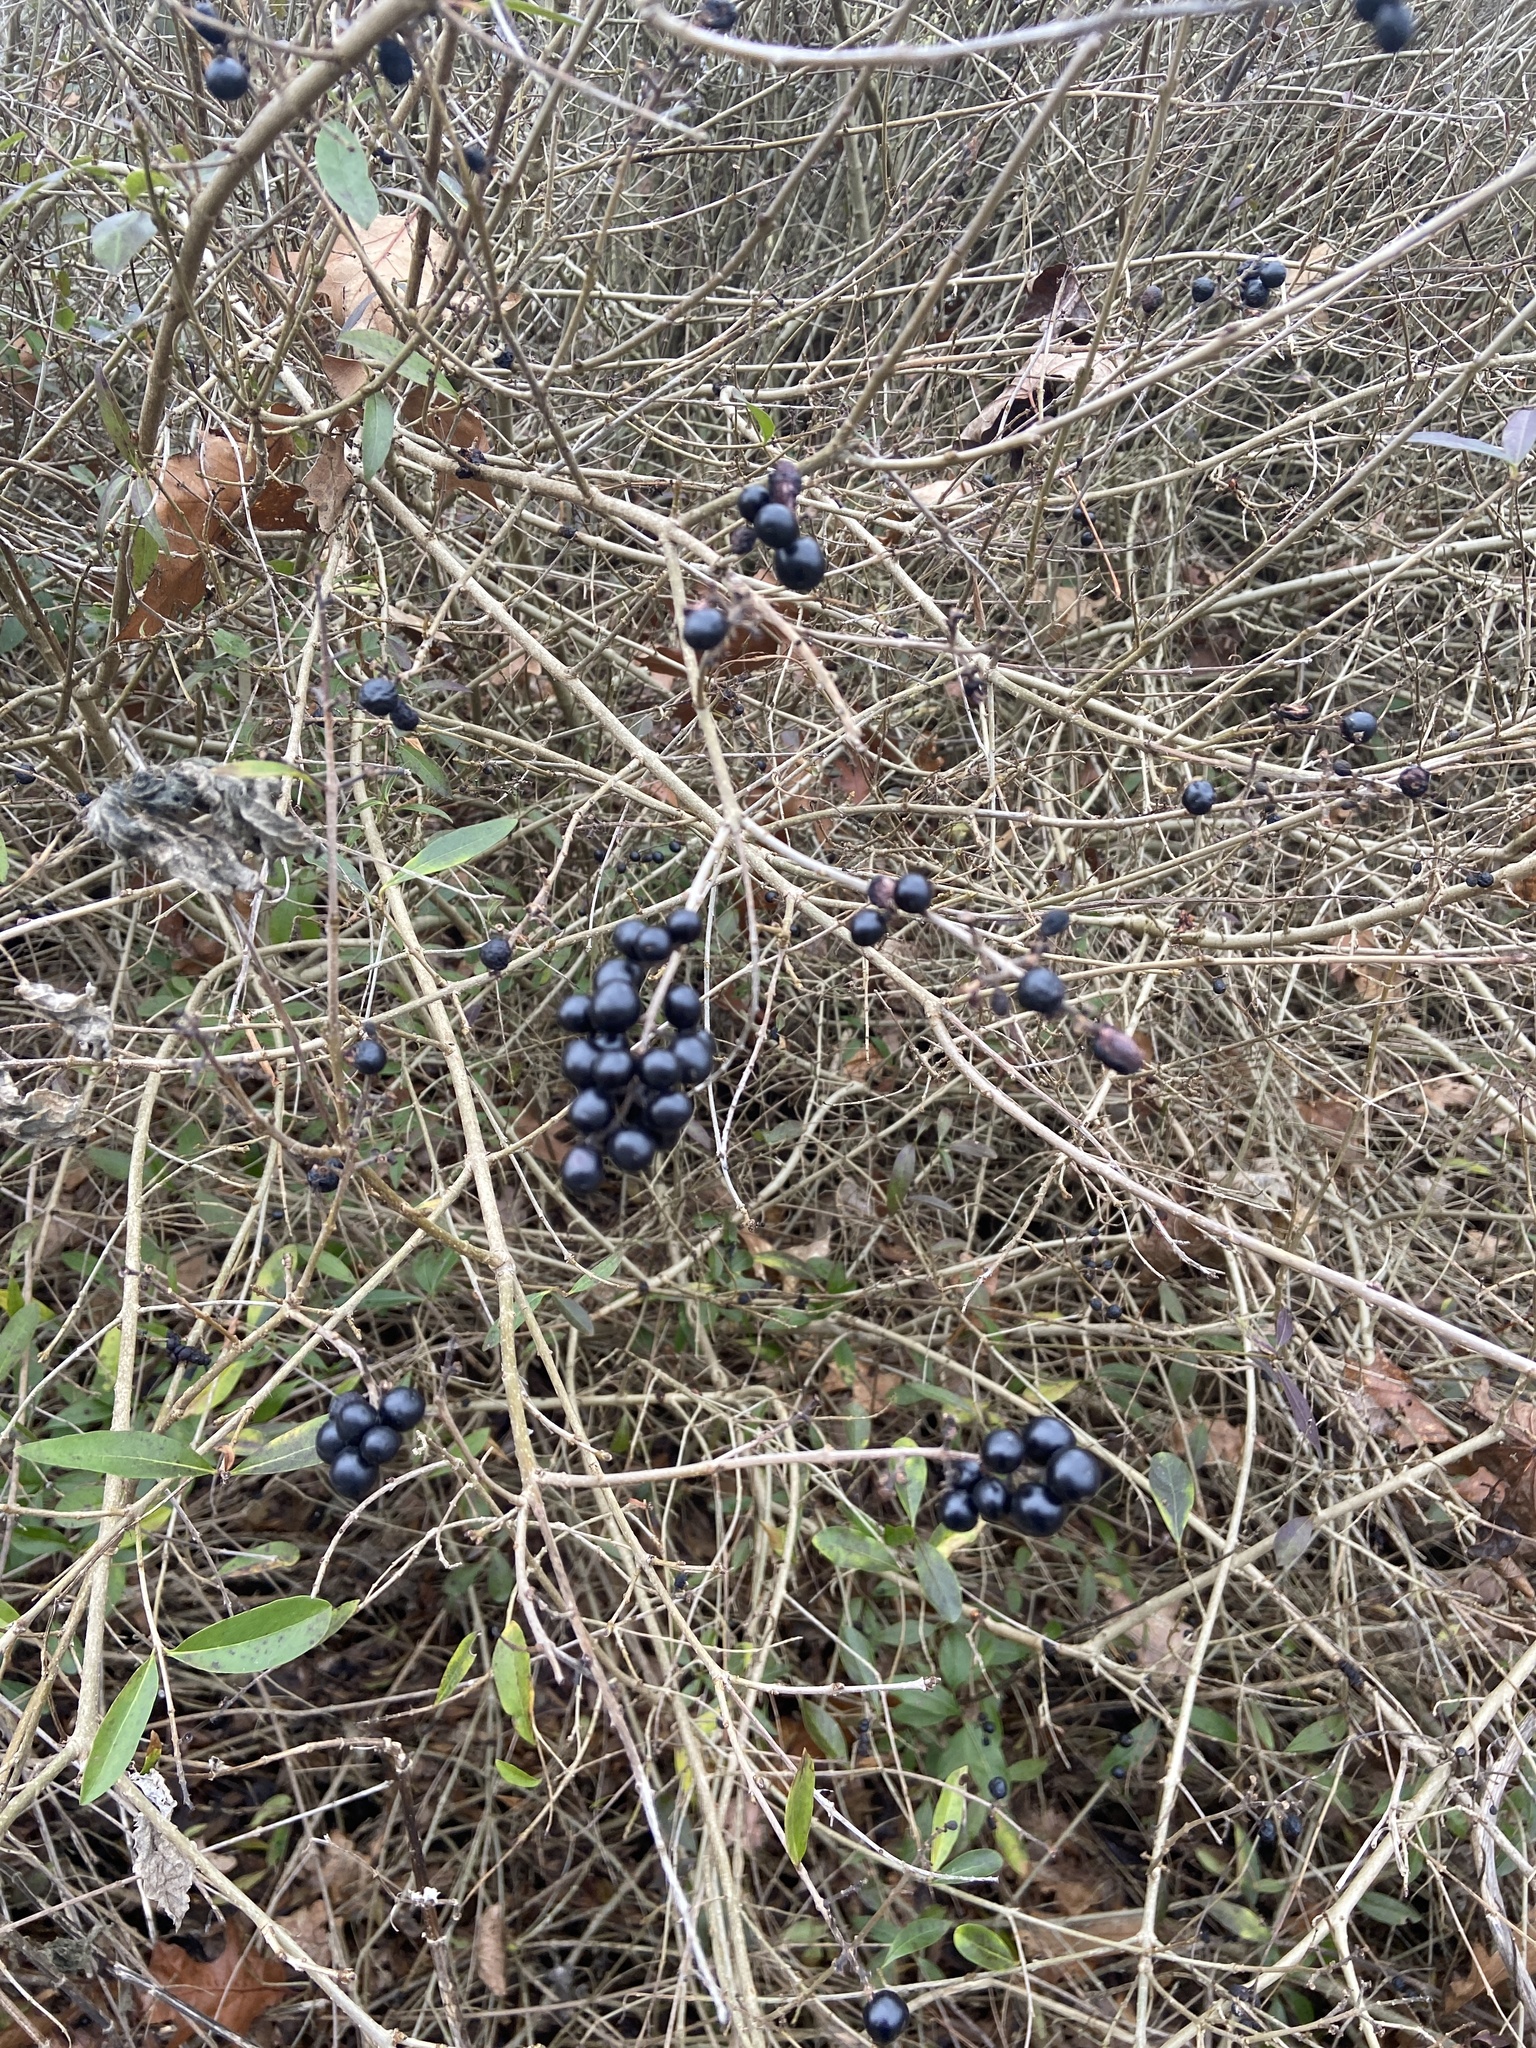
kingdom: Plantae
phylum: Tracheophyta
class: Magnoliopsida
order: Lamiales
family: Oleaceae
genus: Ligustrum
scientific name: Ligustrum vulgare
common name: Wild privet
